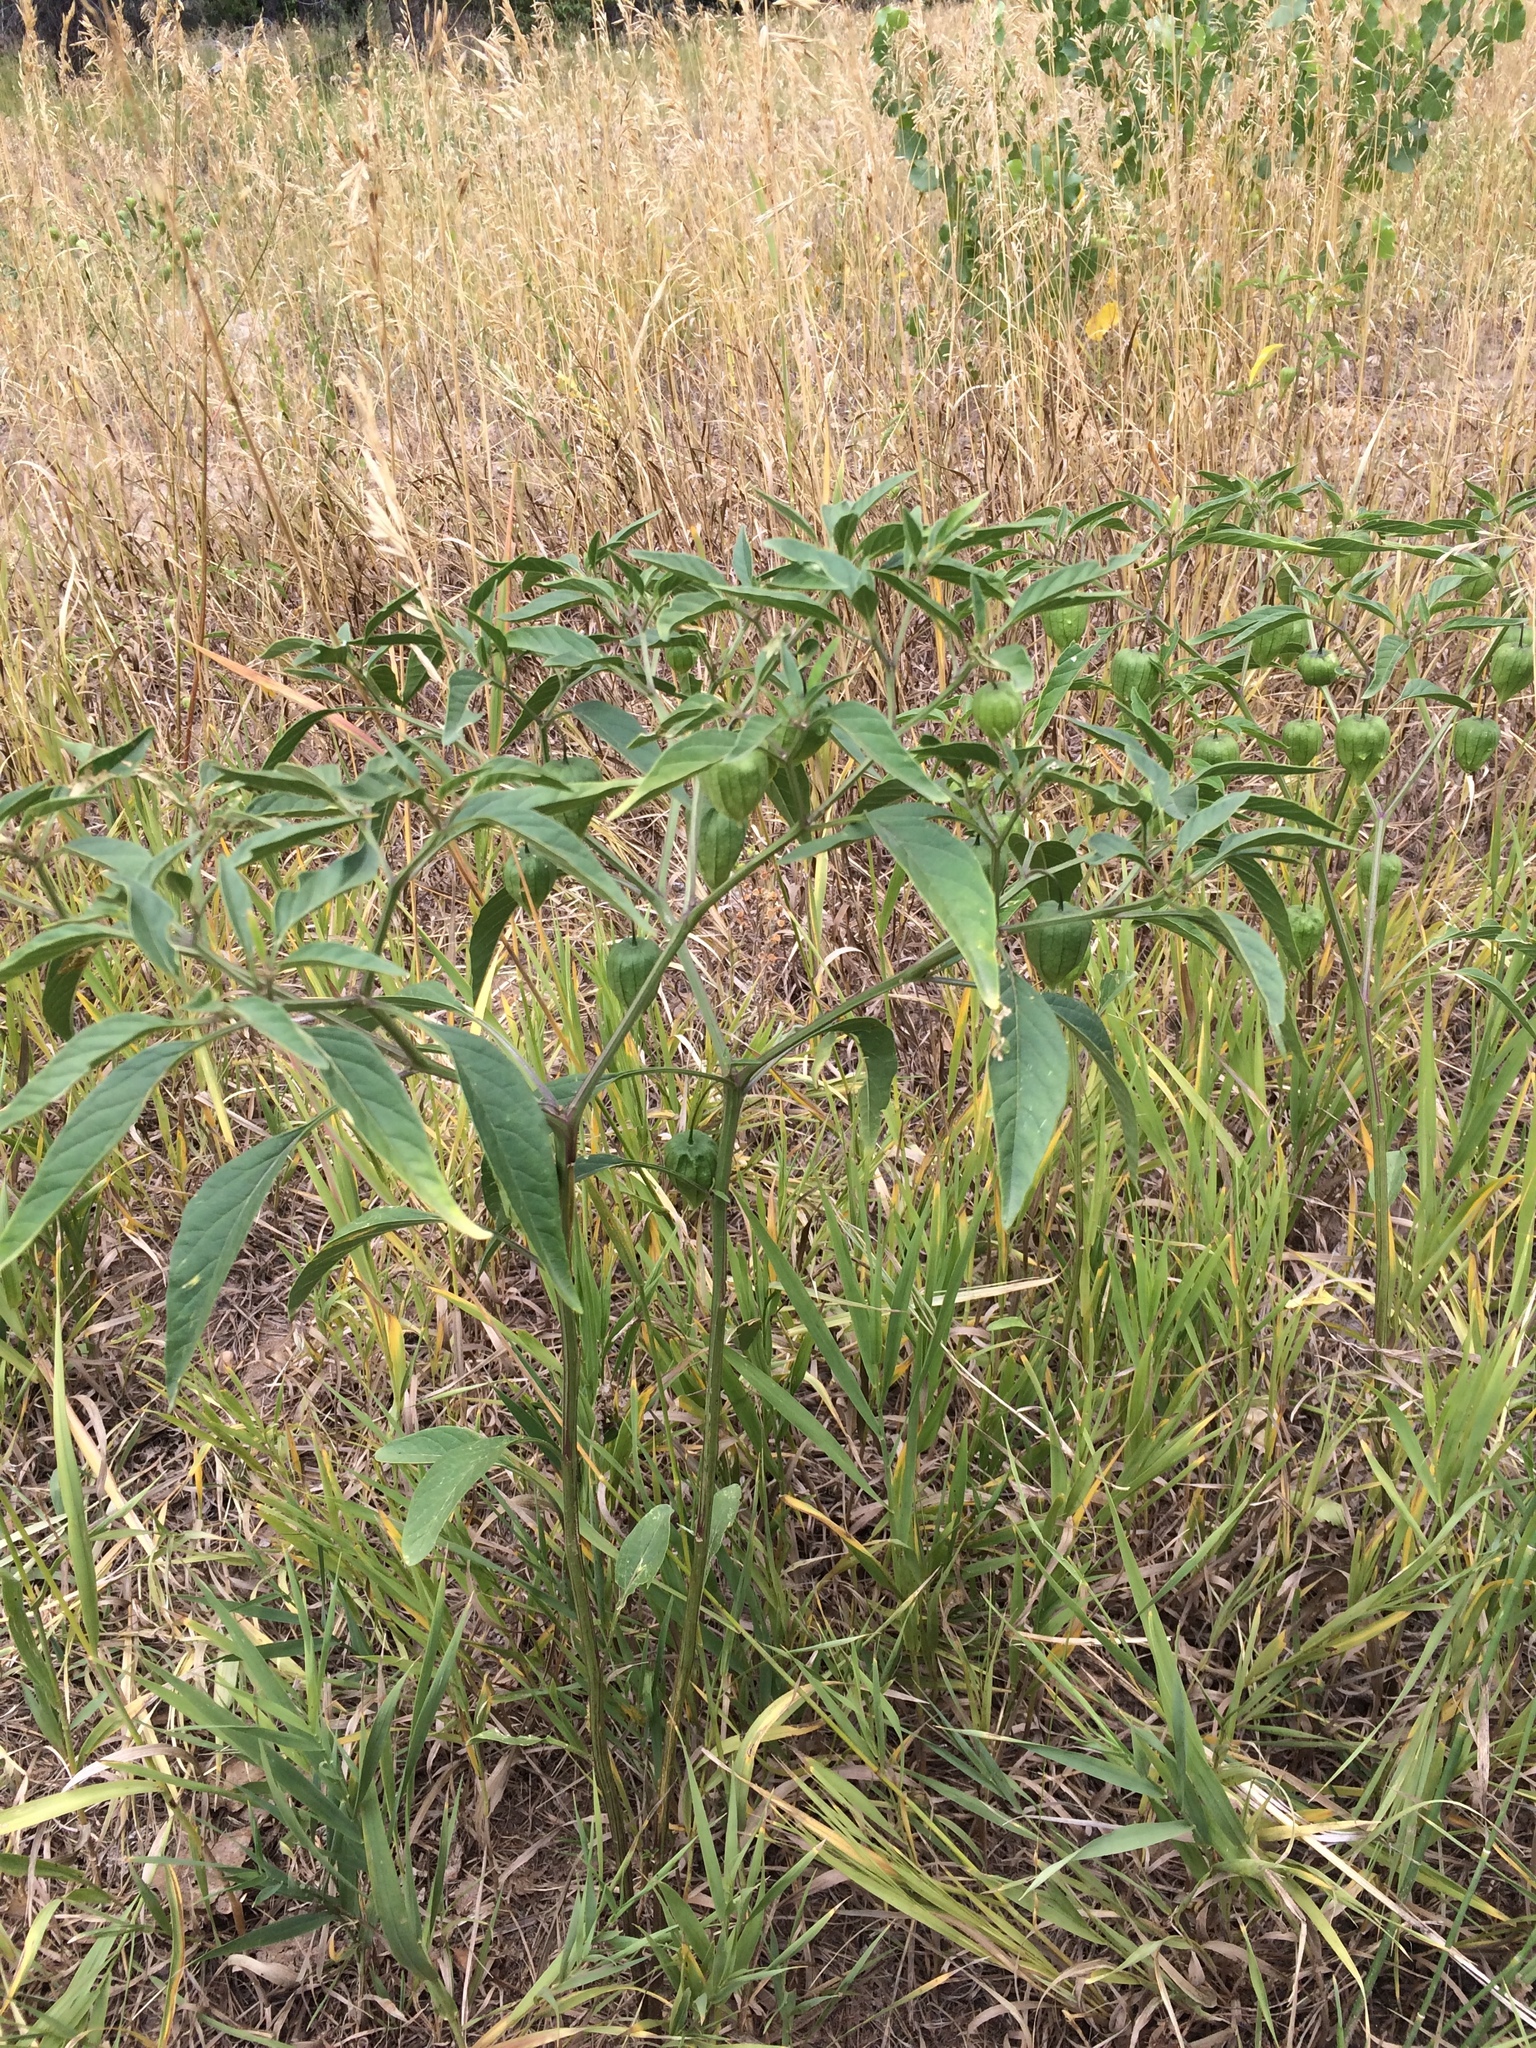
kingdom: Plantae
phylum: Tracheophyta
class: Magnoliopsida
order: Solanales
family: Solanaceae
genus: Physalis
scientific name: Physalis longifolia
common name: Common ground-cherry
